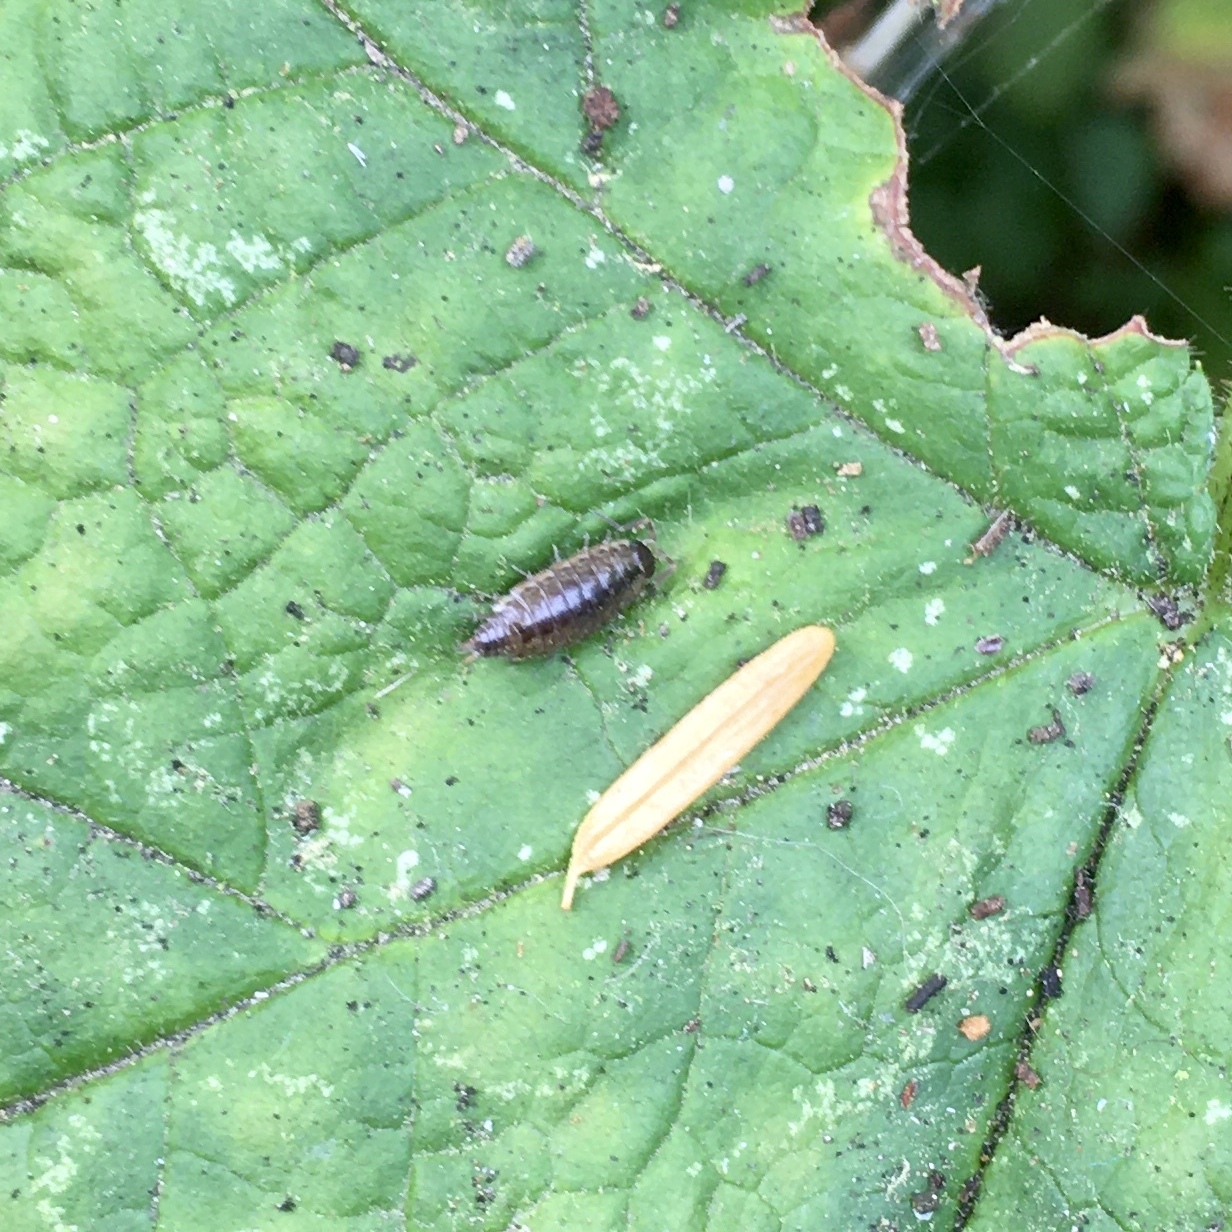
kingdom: Animalia
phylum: Arthropoda
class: Malacostraca
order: Isopoda
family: Philosciidae
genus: Philoscia
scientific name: Philoscia muscorum
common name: Common striped woodlouse
